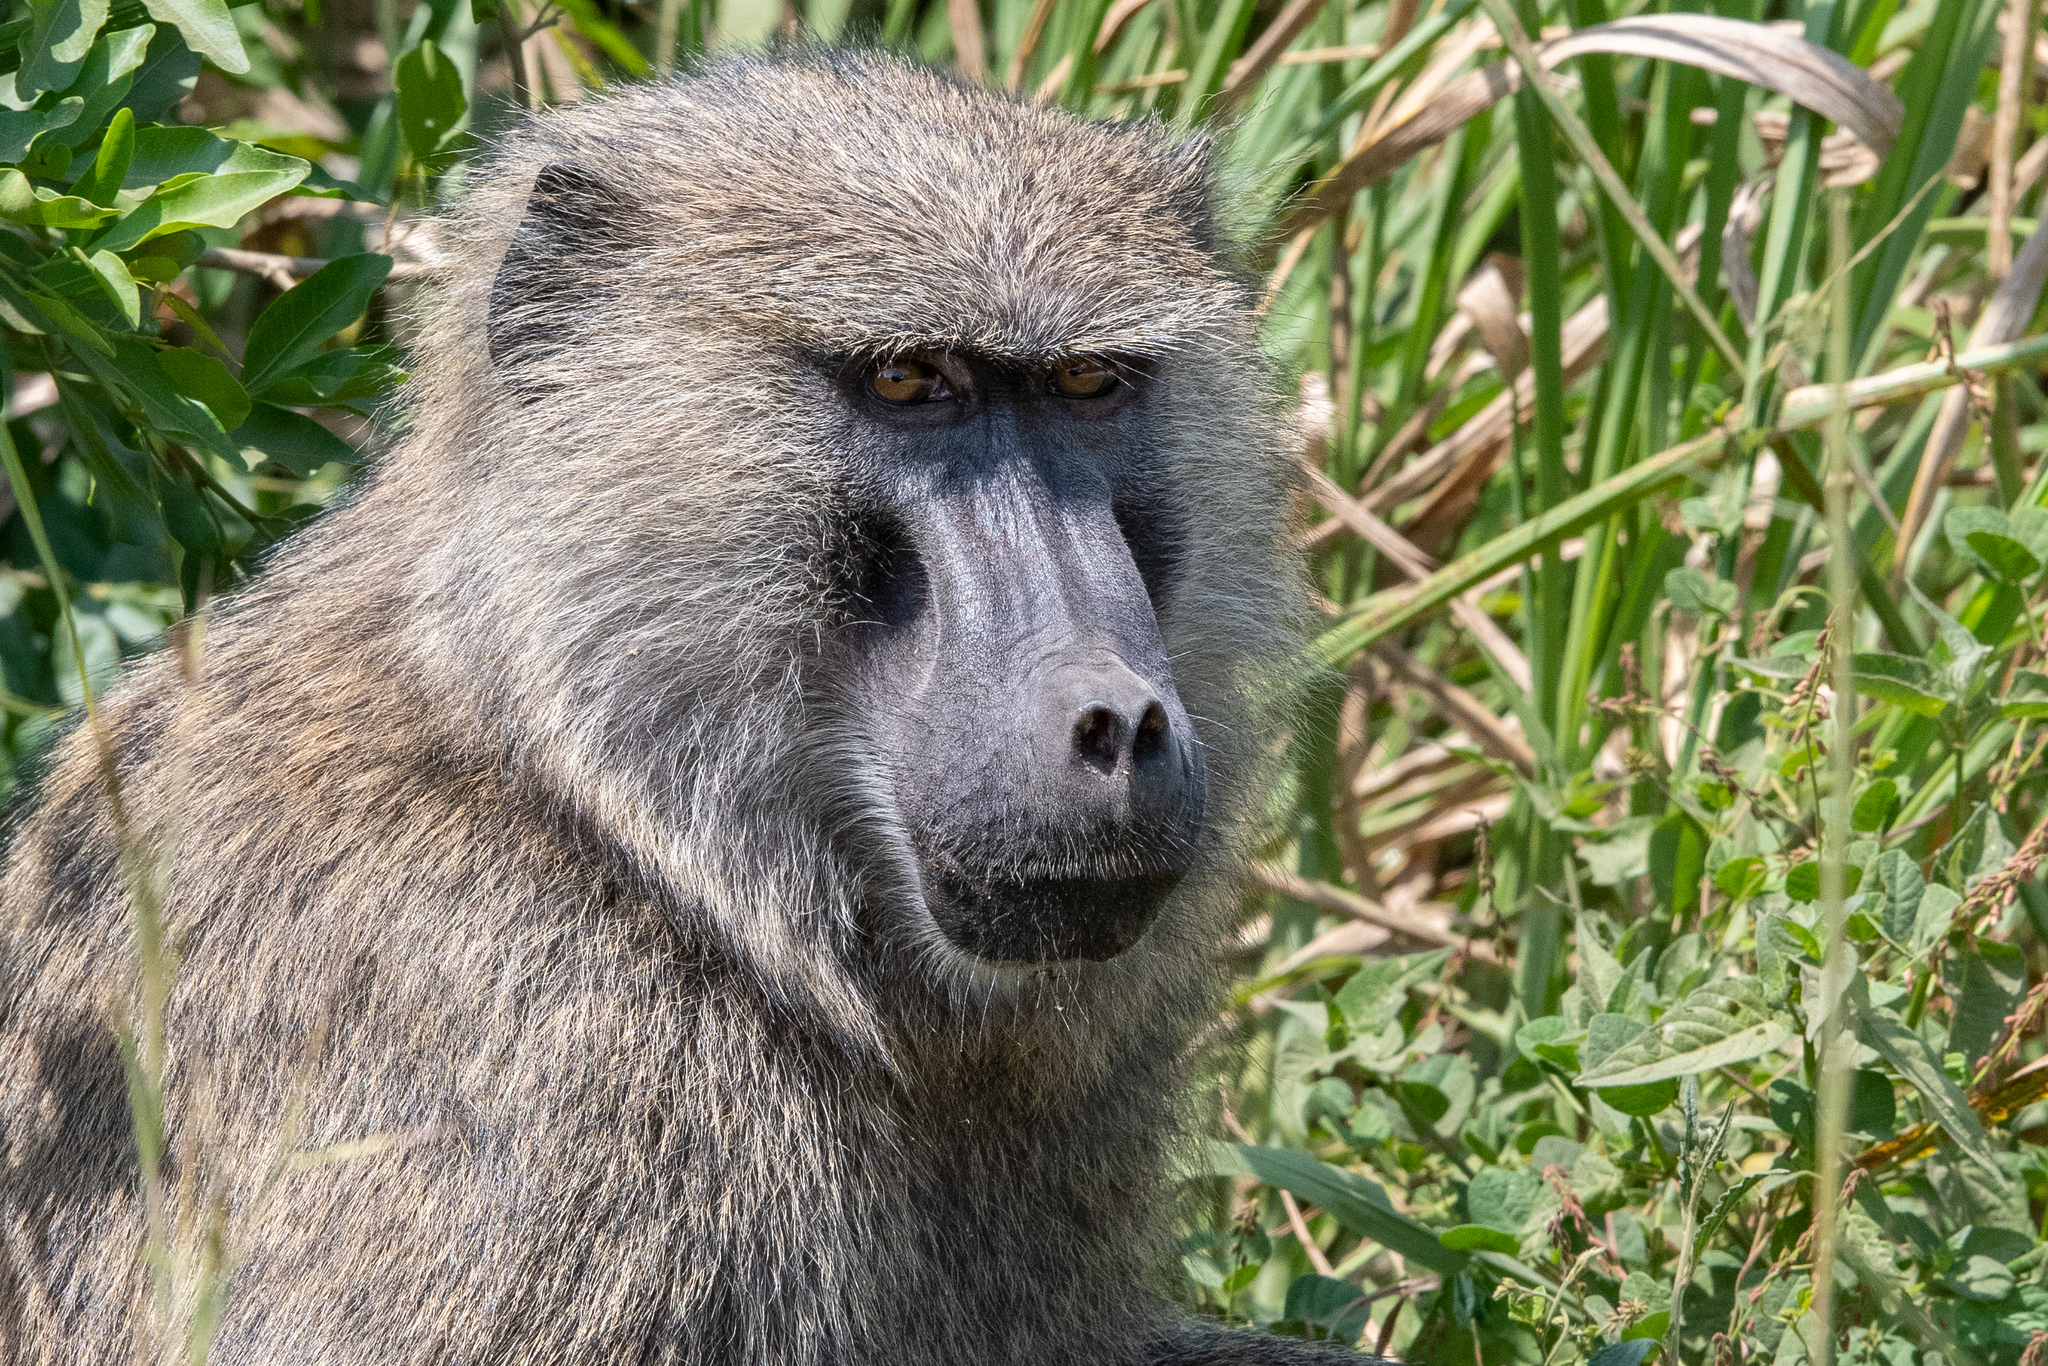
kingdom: Animalia
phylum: Chordata
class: Mammalia
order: Primates
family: Cercopithecidae
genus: Papio
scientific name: Papio anubis
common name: Olive baboon
